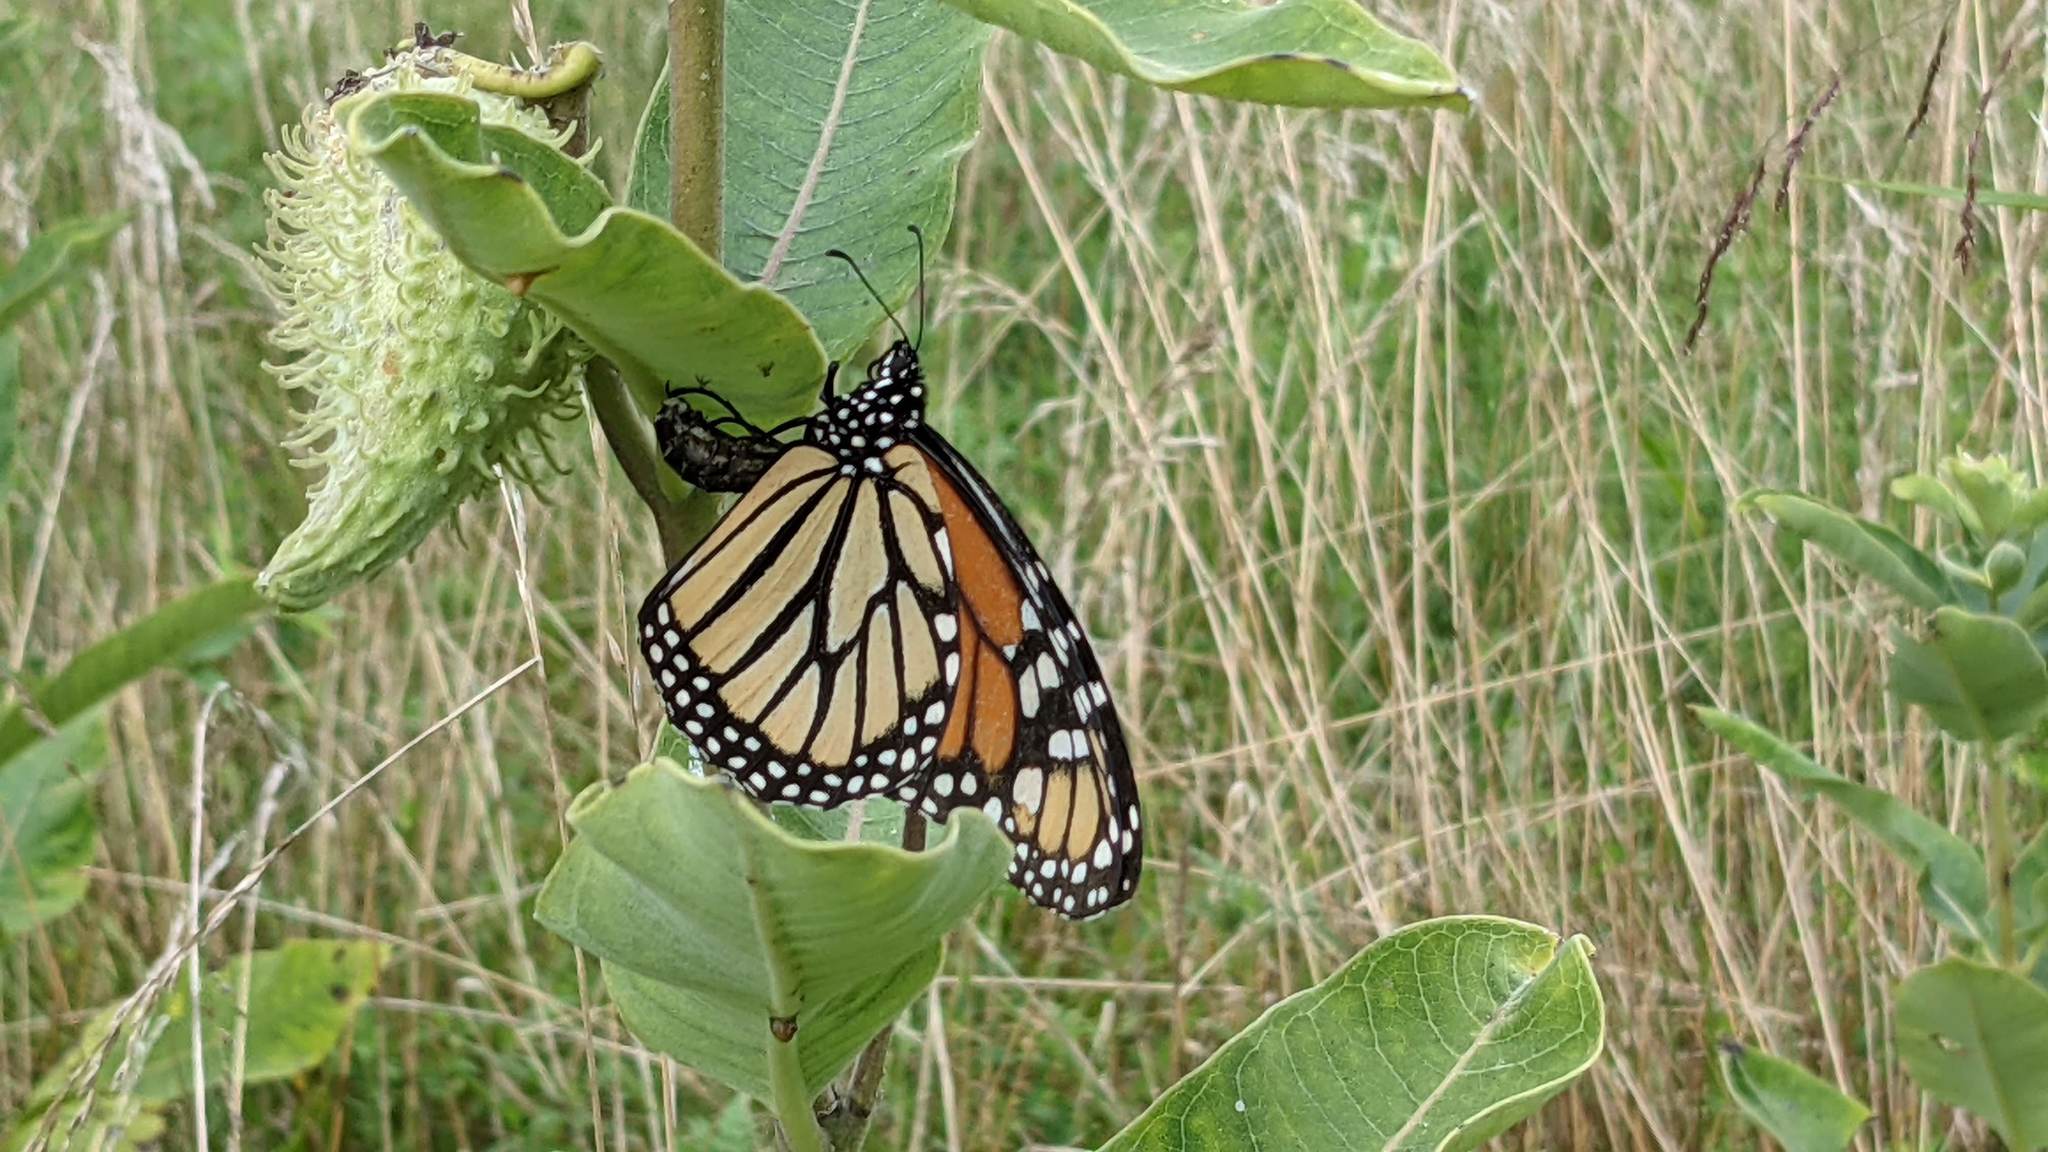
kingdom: Animalia
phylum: Arthropoda
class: Insecta
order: Lepidoptera
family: Nymphalidae
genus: Danaus
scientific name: Danaus plexippus
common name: Monarch
